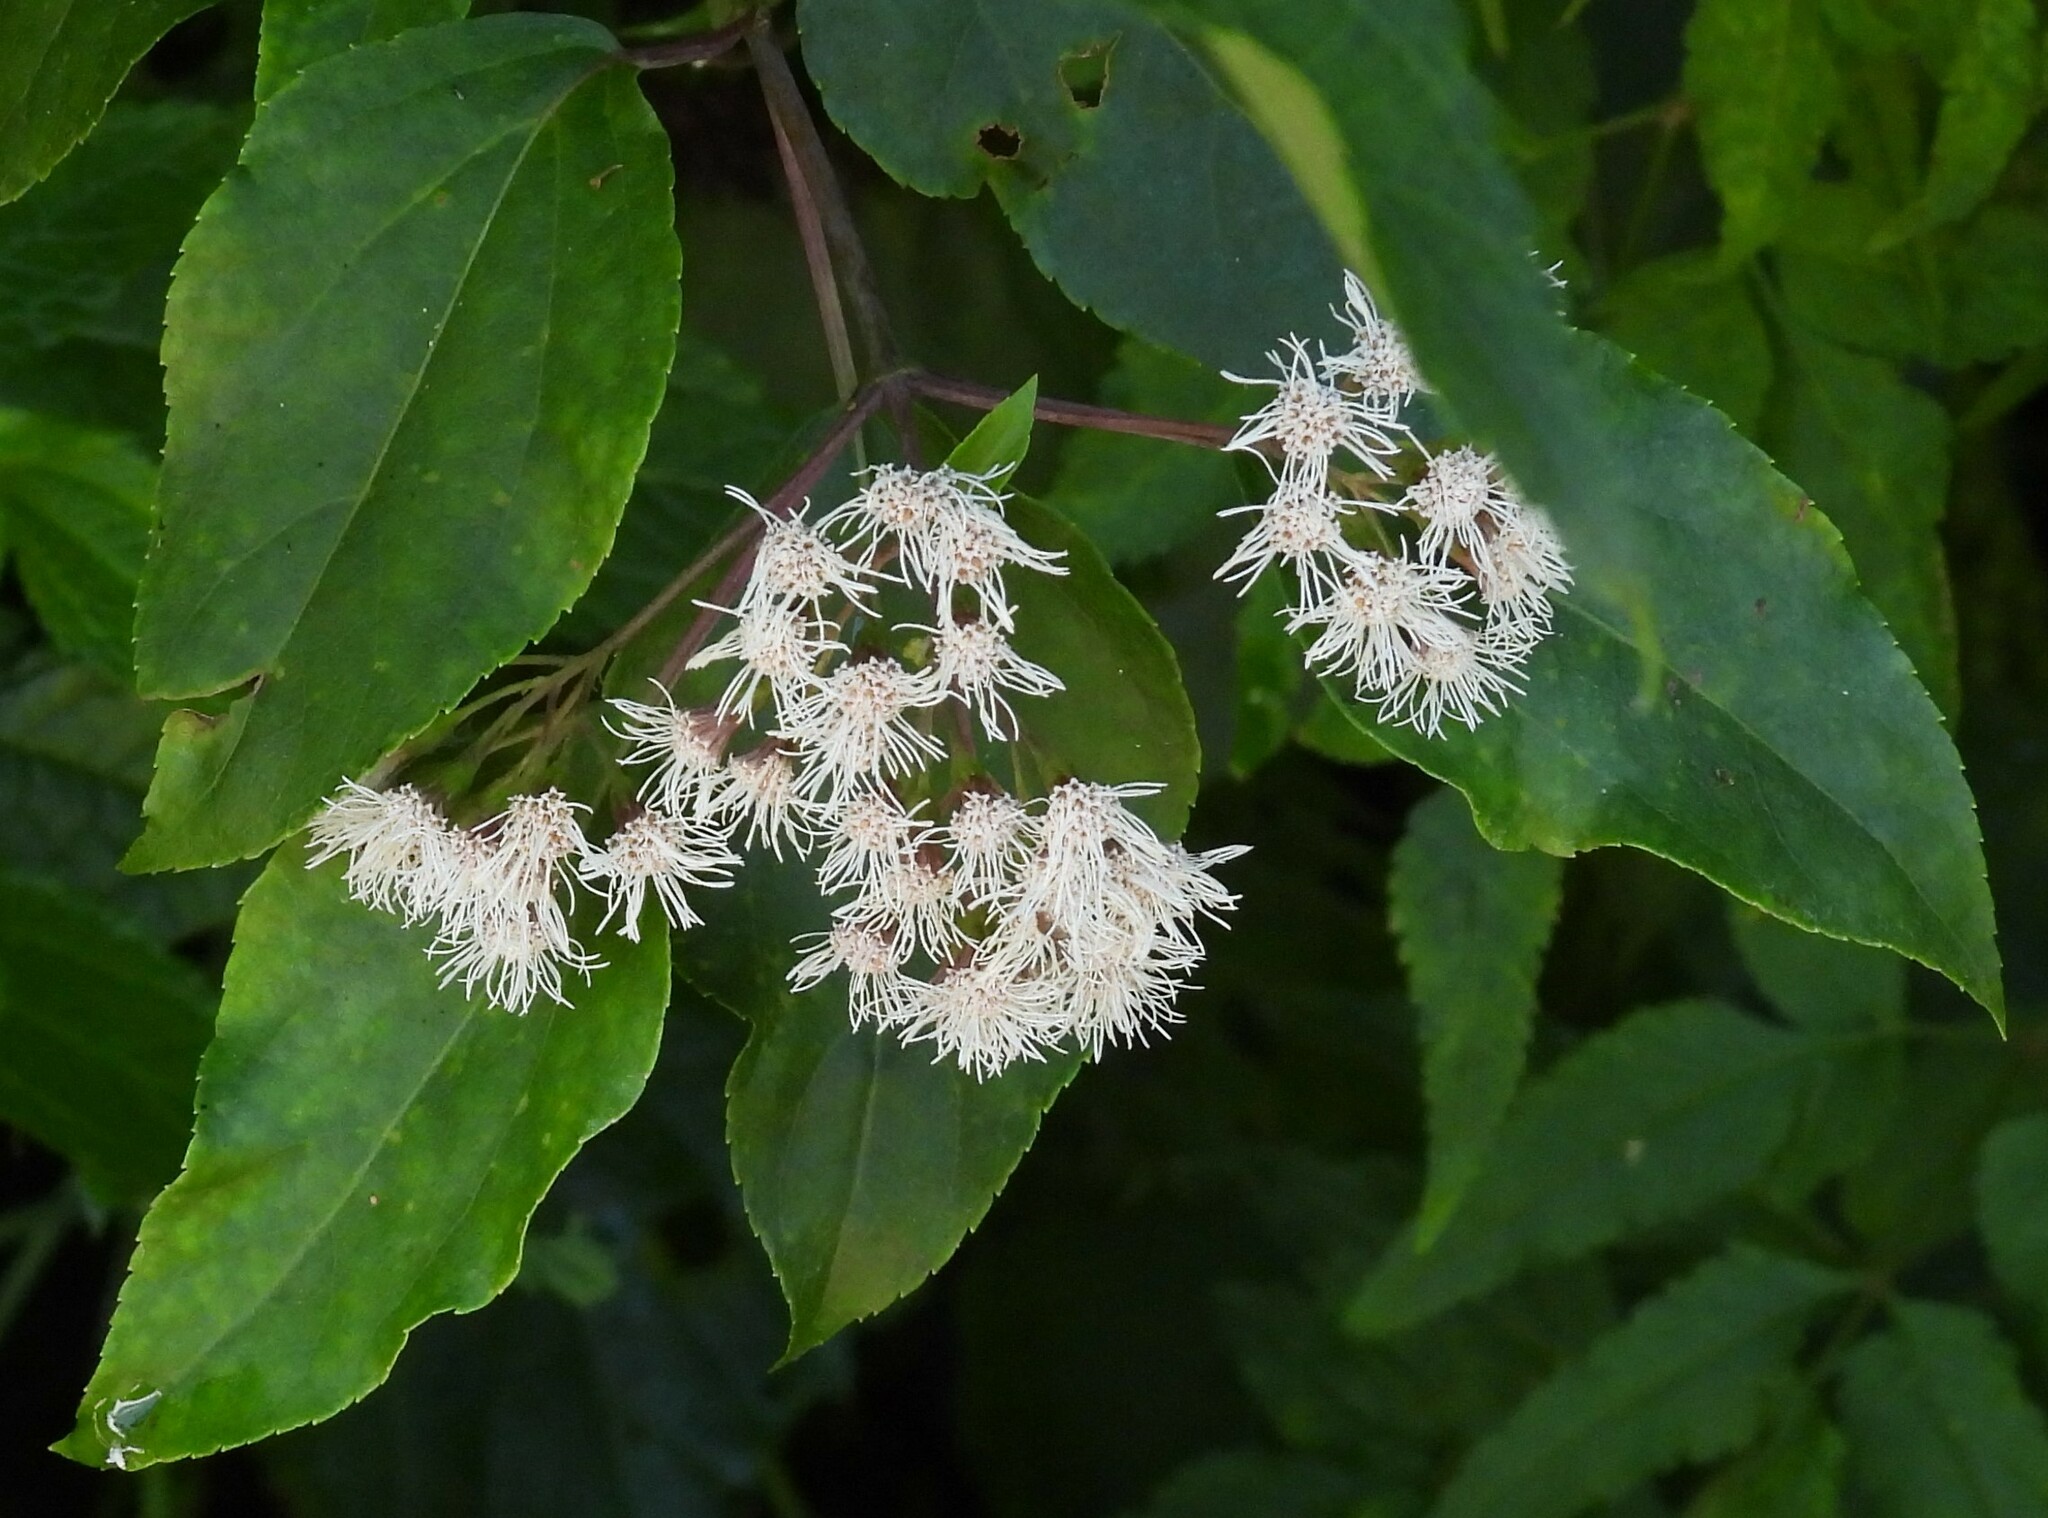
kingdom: Plantae
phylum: Tracheophyta
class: Magnoliopsida
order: Asterales
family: Asteraceae
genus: Kaunia
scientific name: Kaunia lasiophthalma
